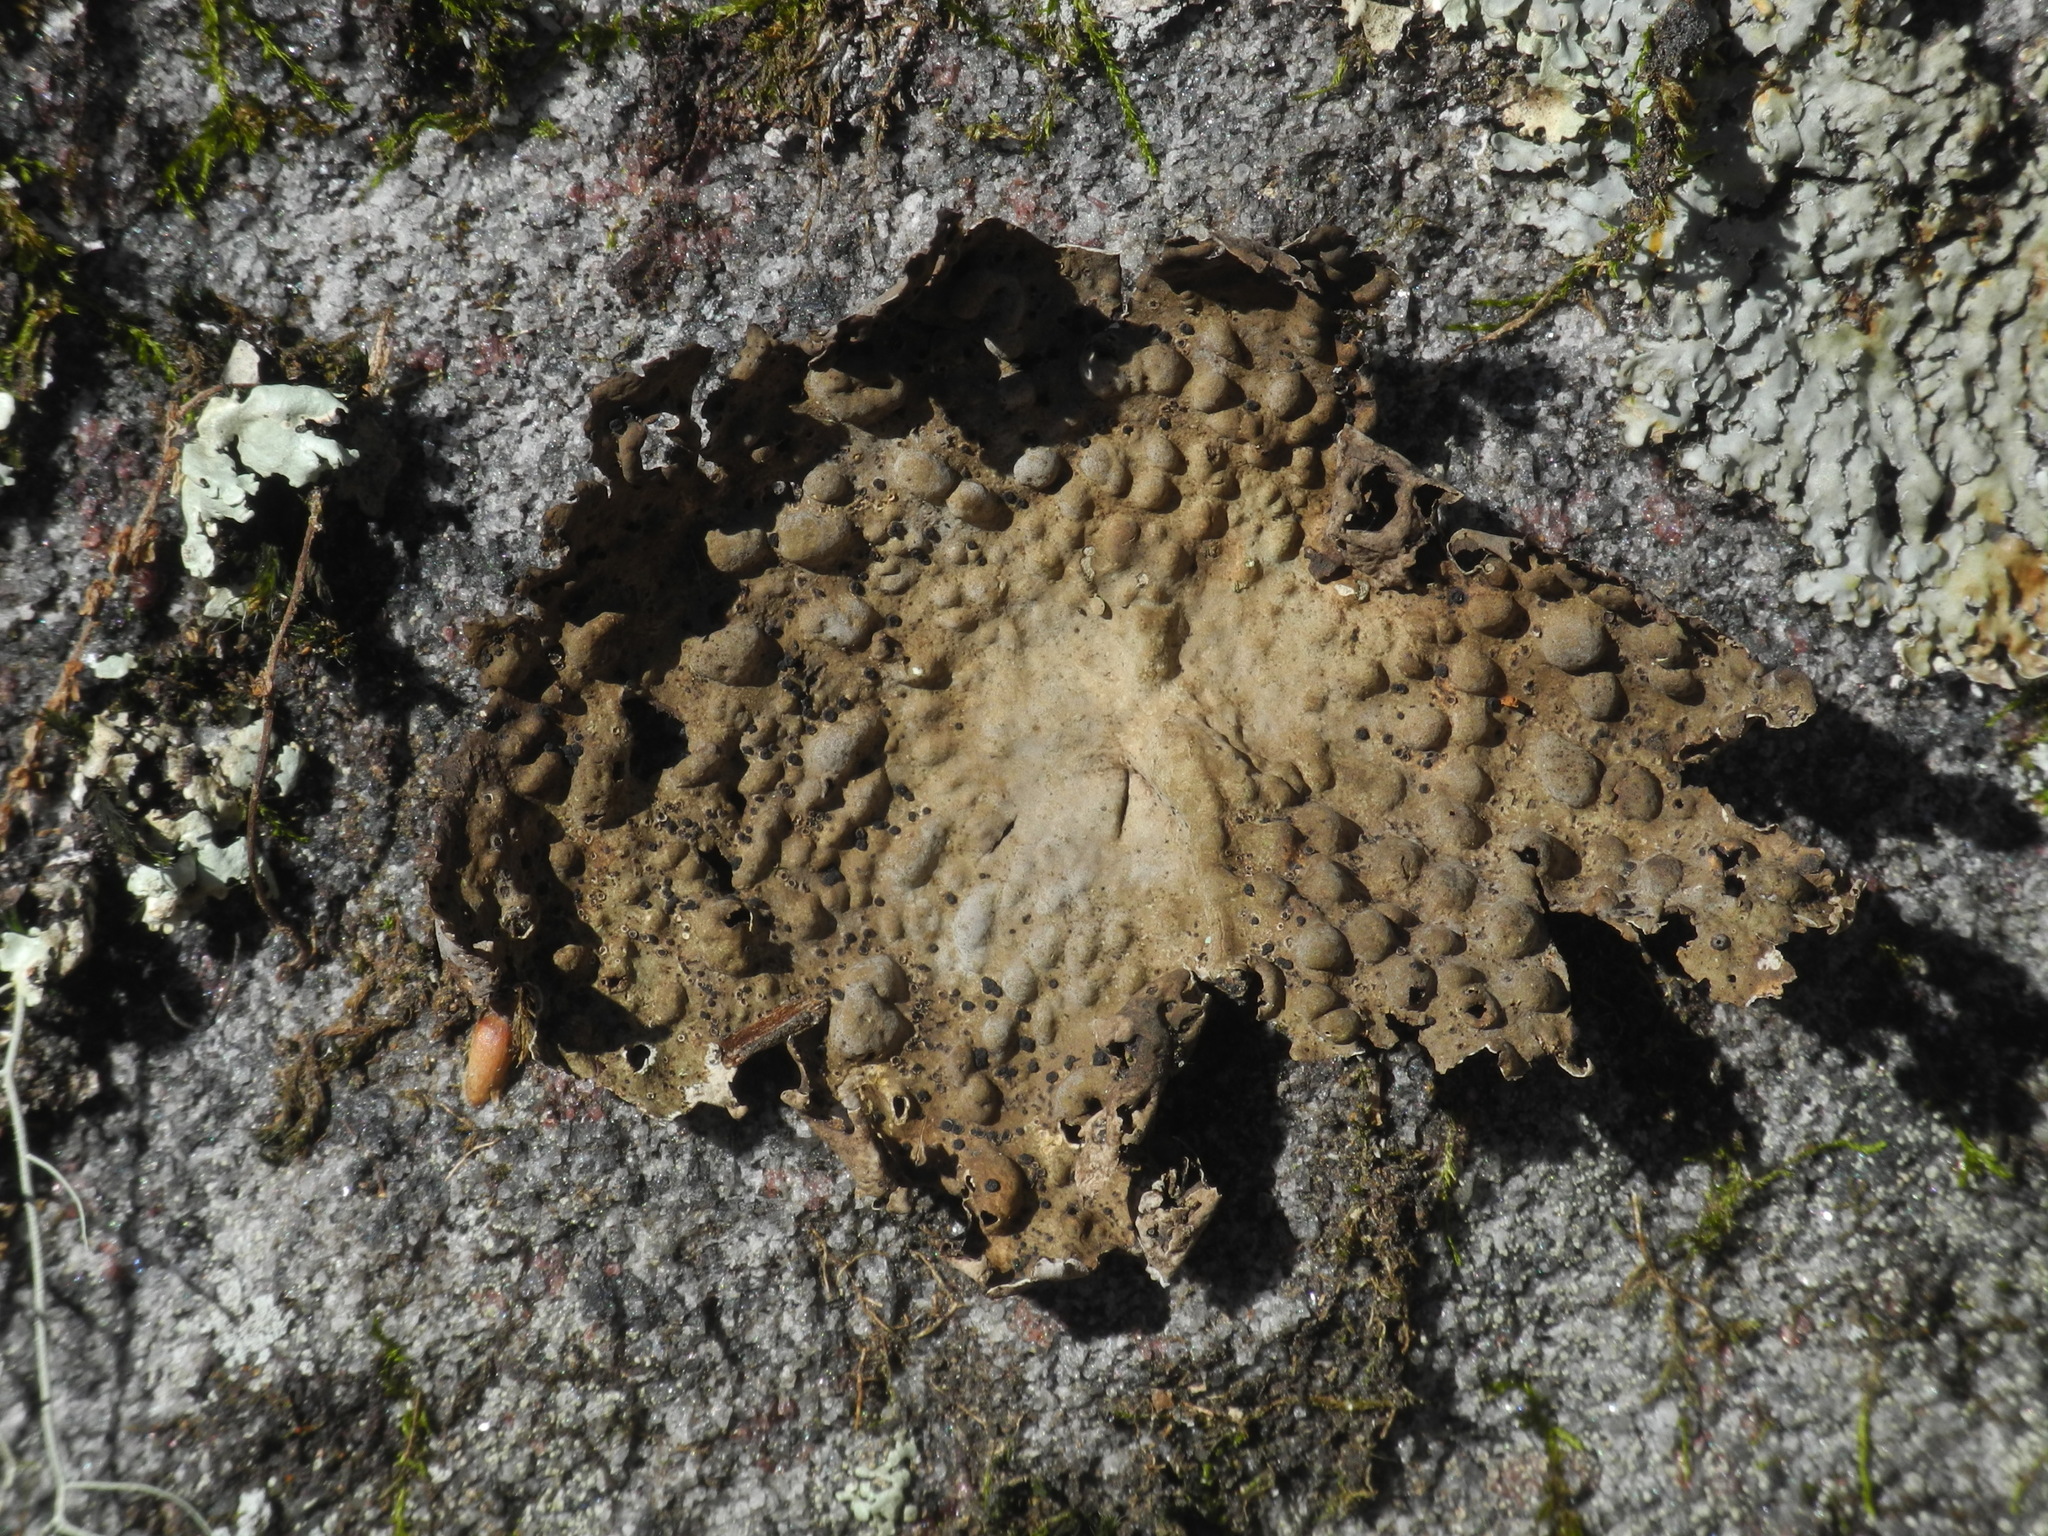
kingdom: Fungi
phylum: Ascomycota
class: Lecanoromycetes
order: Umbilicariales
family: Umbilicariaceae
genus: Lasallia
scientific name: Lasallia papulosa
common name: Common toadskin lichen
